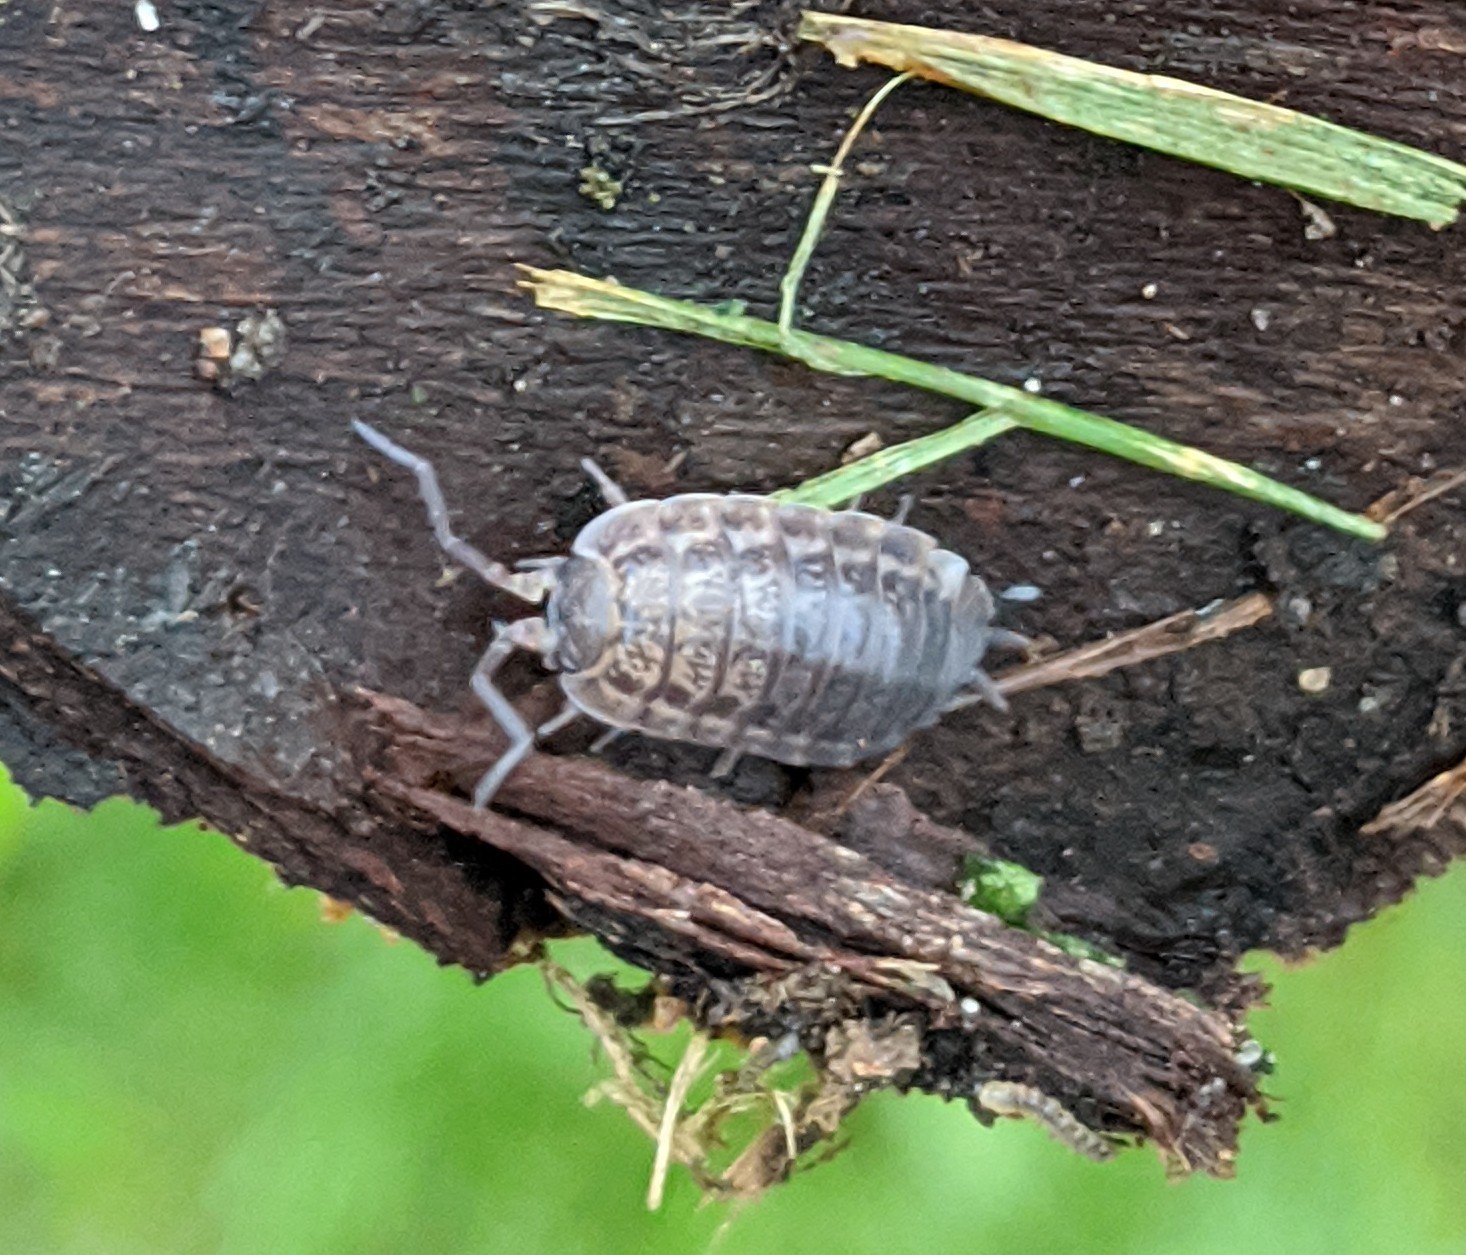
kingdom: Animalia
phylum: Arthropoda
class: Malacostraca
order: Isopoda
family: Trachelipodidae
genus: Trachelipus
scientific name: Trachelipus rathkii
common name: Isopod
